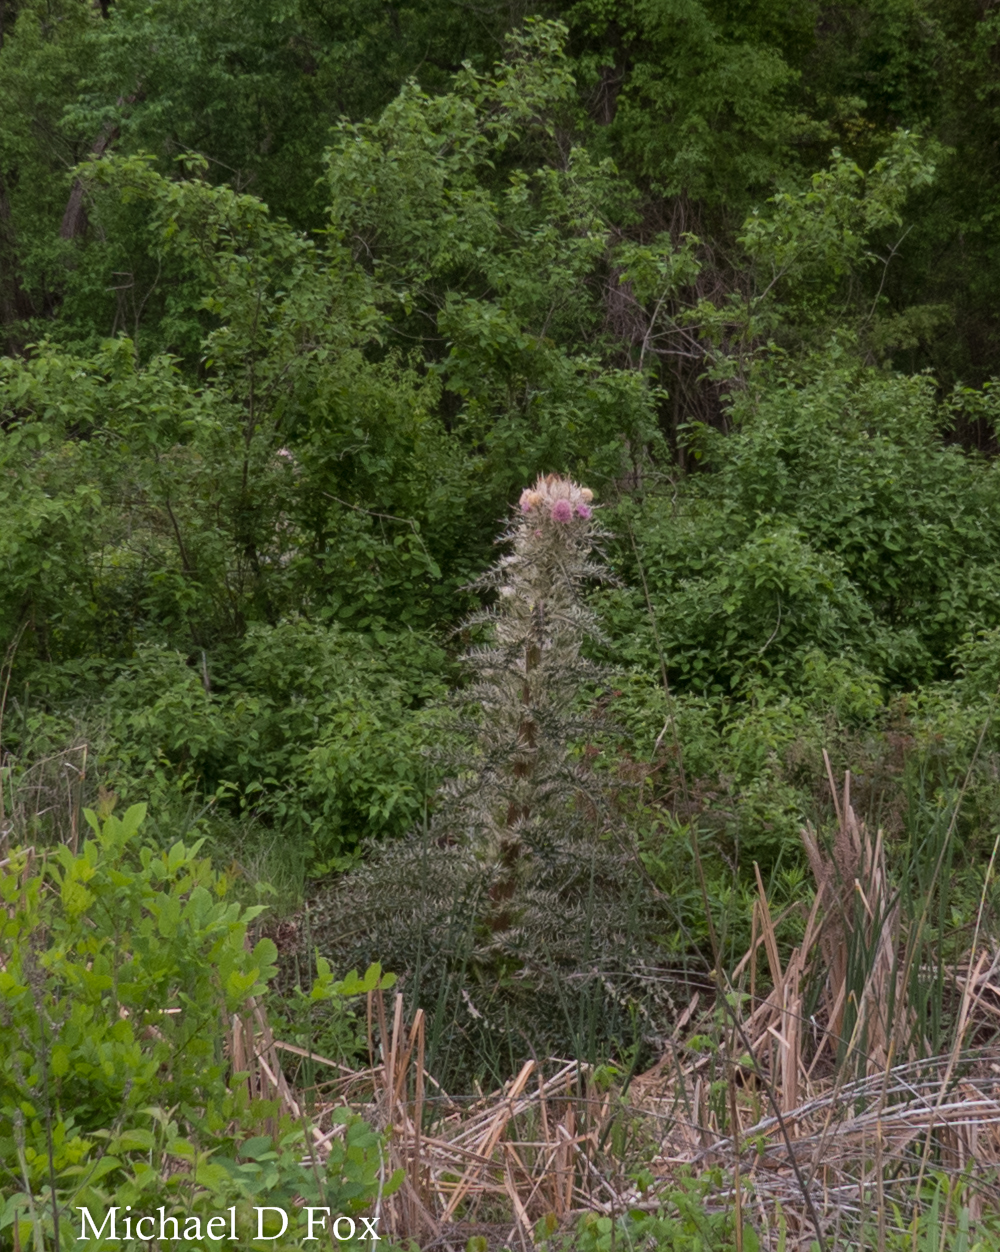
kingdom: Plantae
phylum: Tracheophyta
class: Magnoliopsida
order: Asterales
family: Asteraceae
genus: Cirsium
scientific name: Cirsium horridulum
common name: Bristly thistle
